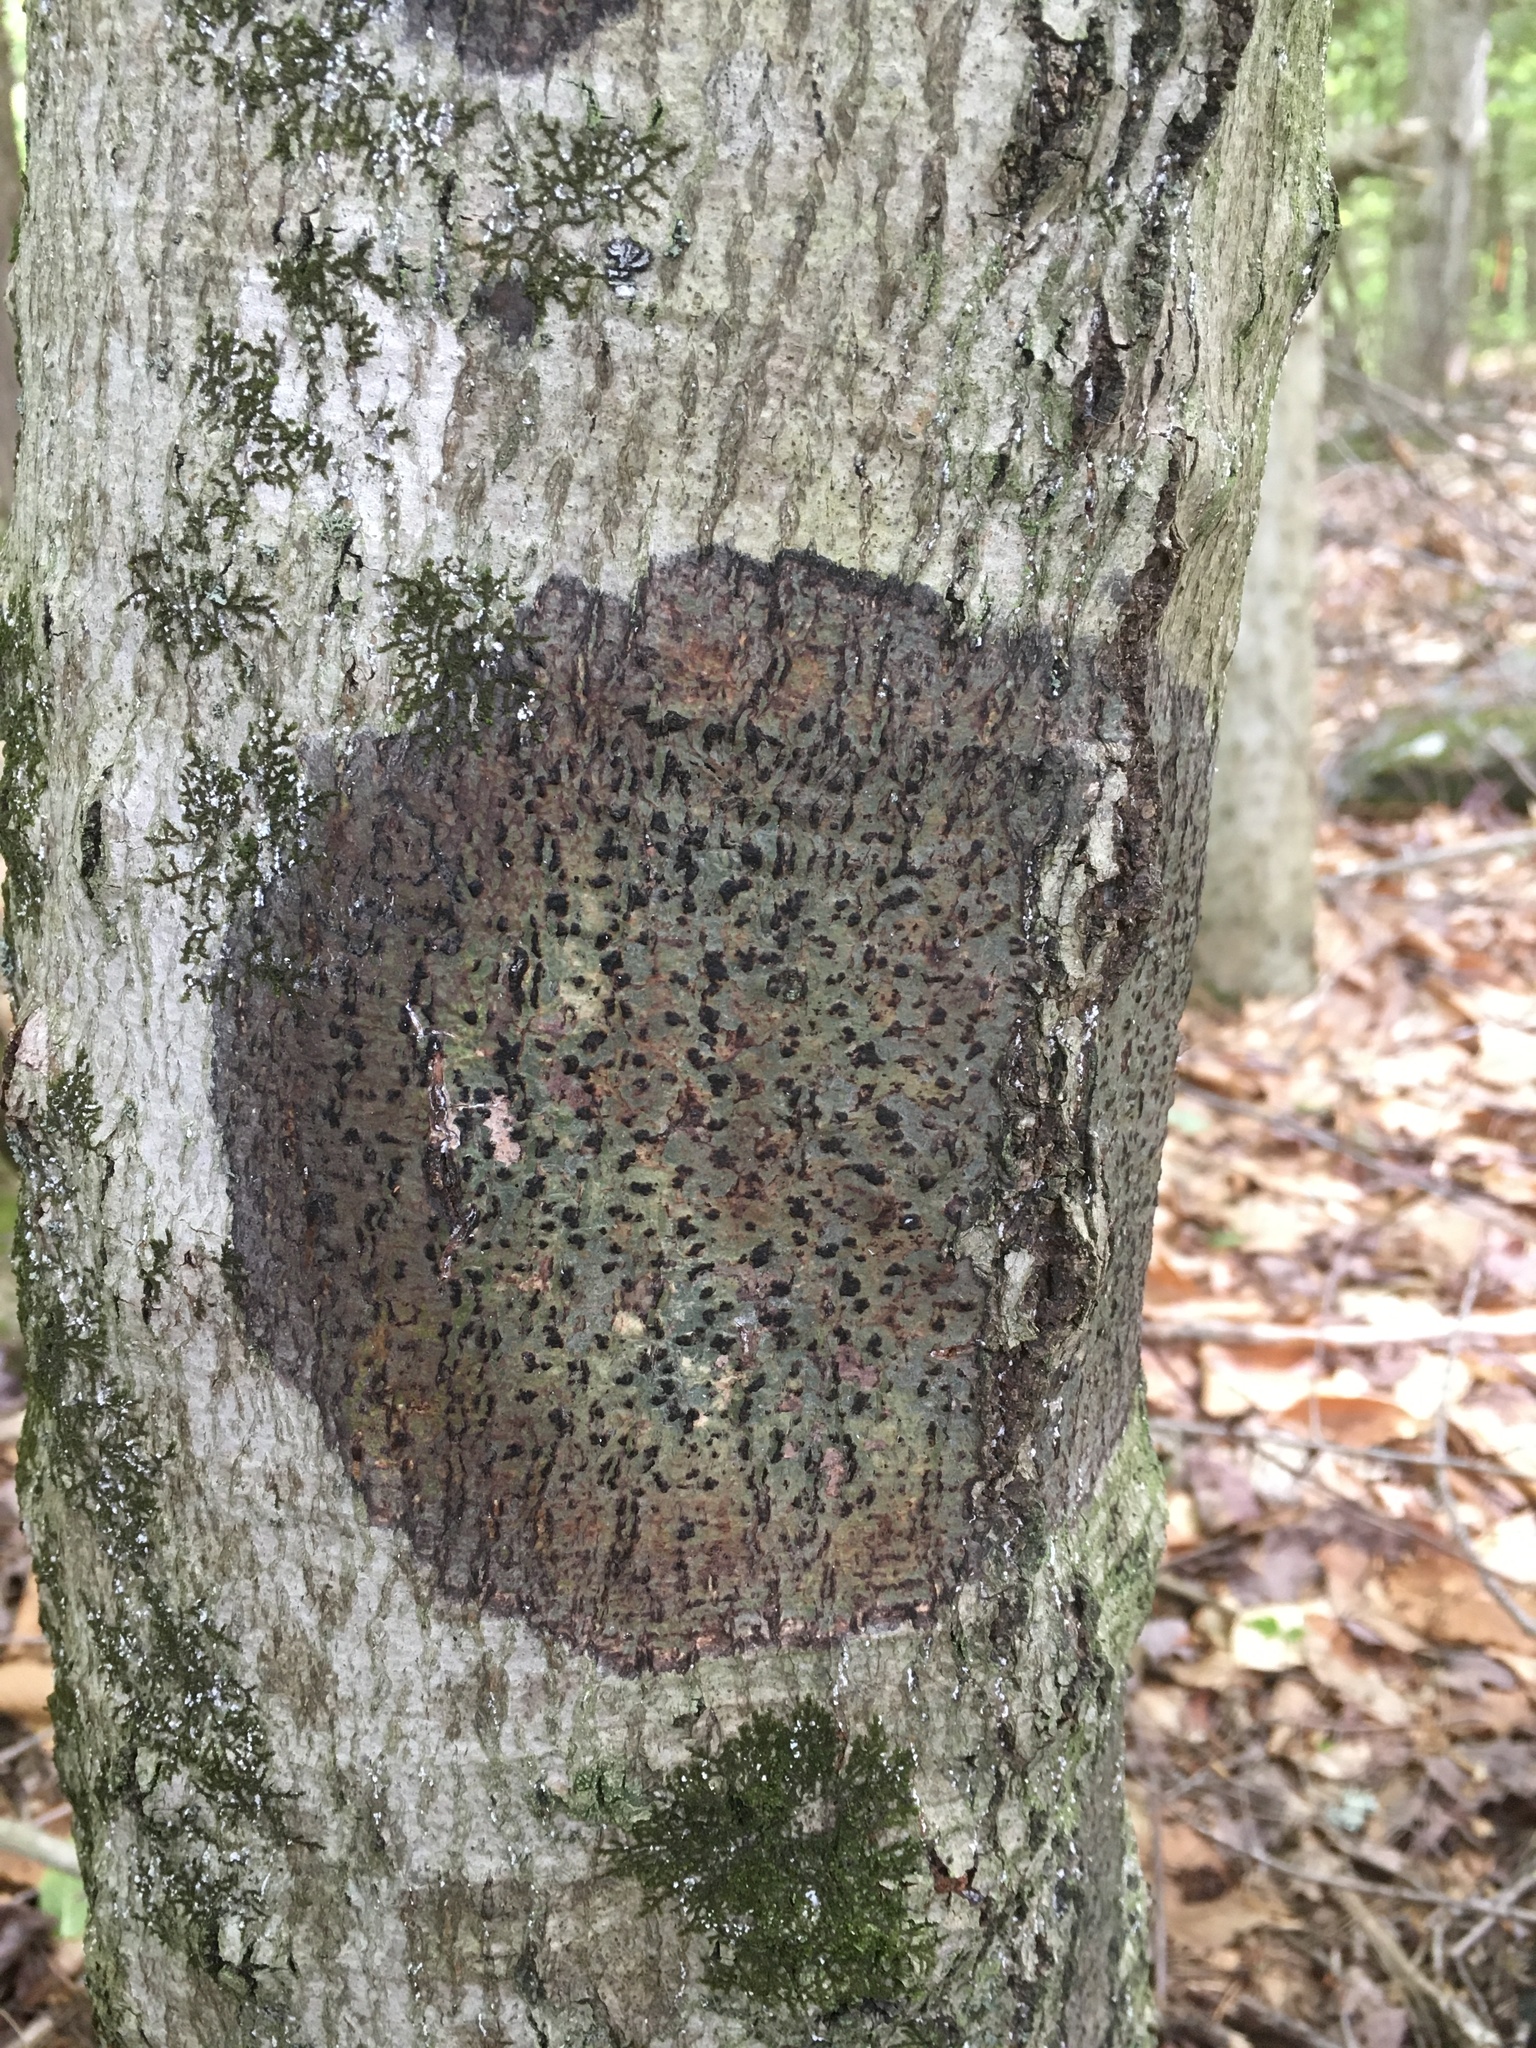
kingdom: Fungi
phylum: Ascomycota
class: Dothideomycetes
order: Trypetheliales
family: Trypetheliaceae
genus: Viridothelium
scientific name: Viridothelium virens
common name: Speckled blister lichen
